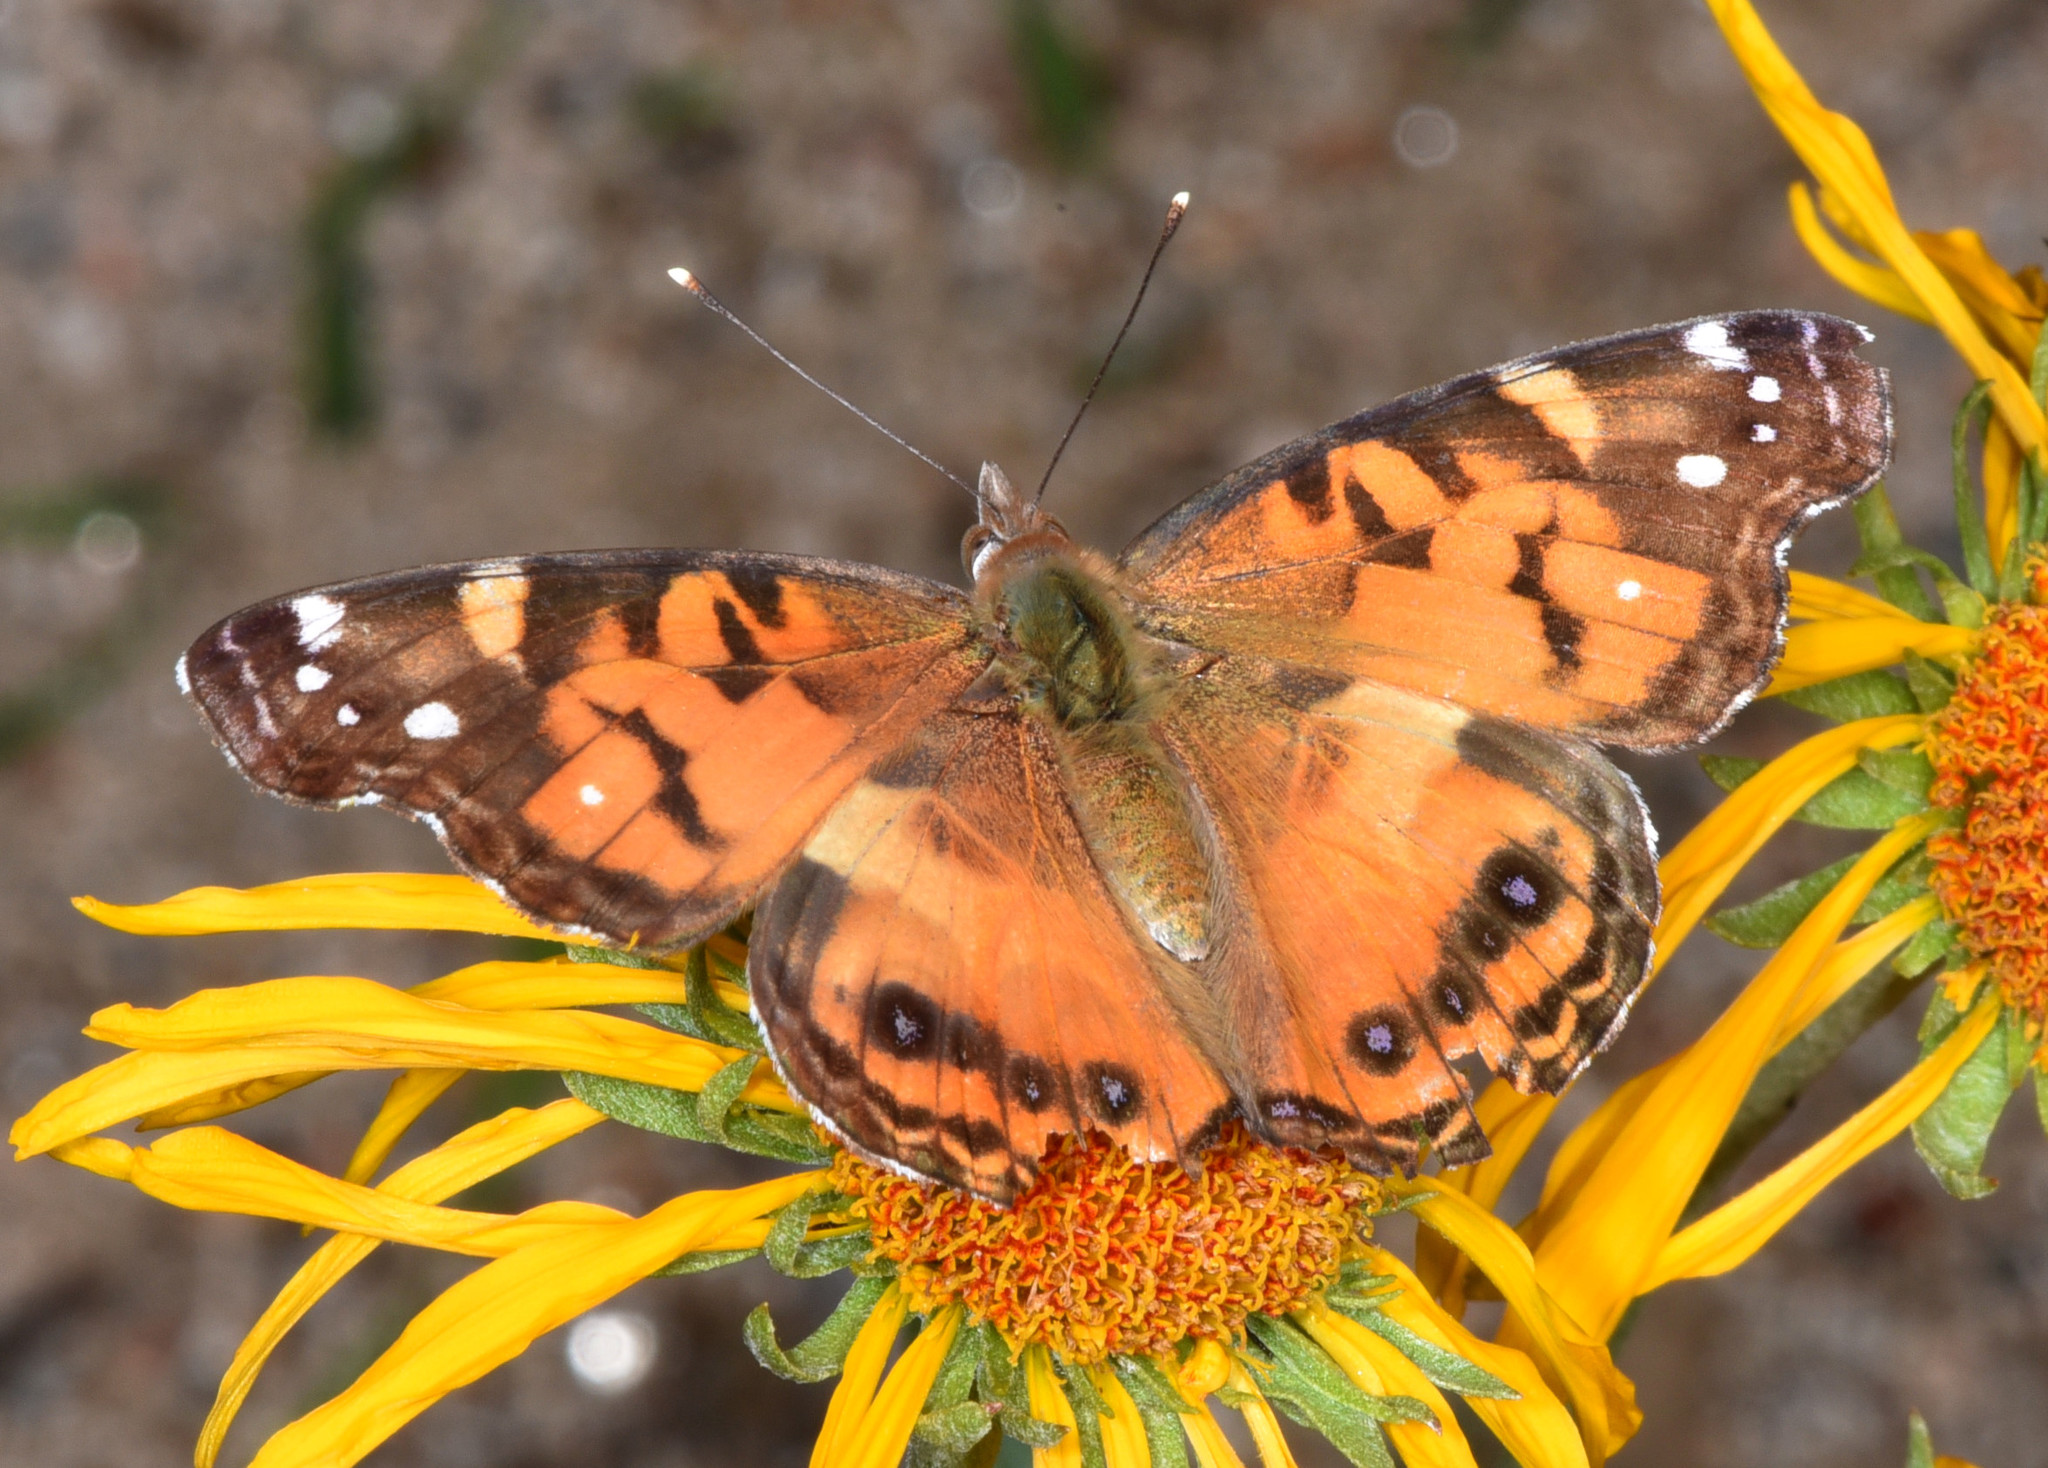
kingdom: Animalia
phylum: Arthropoda
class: Insecta
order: Lepidoptera
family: Nymphalidae
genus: Vanessa
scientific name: Vanessa virginiensis
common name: American lady
